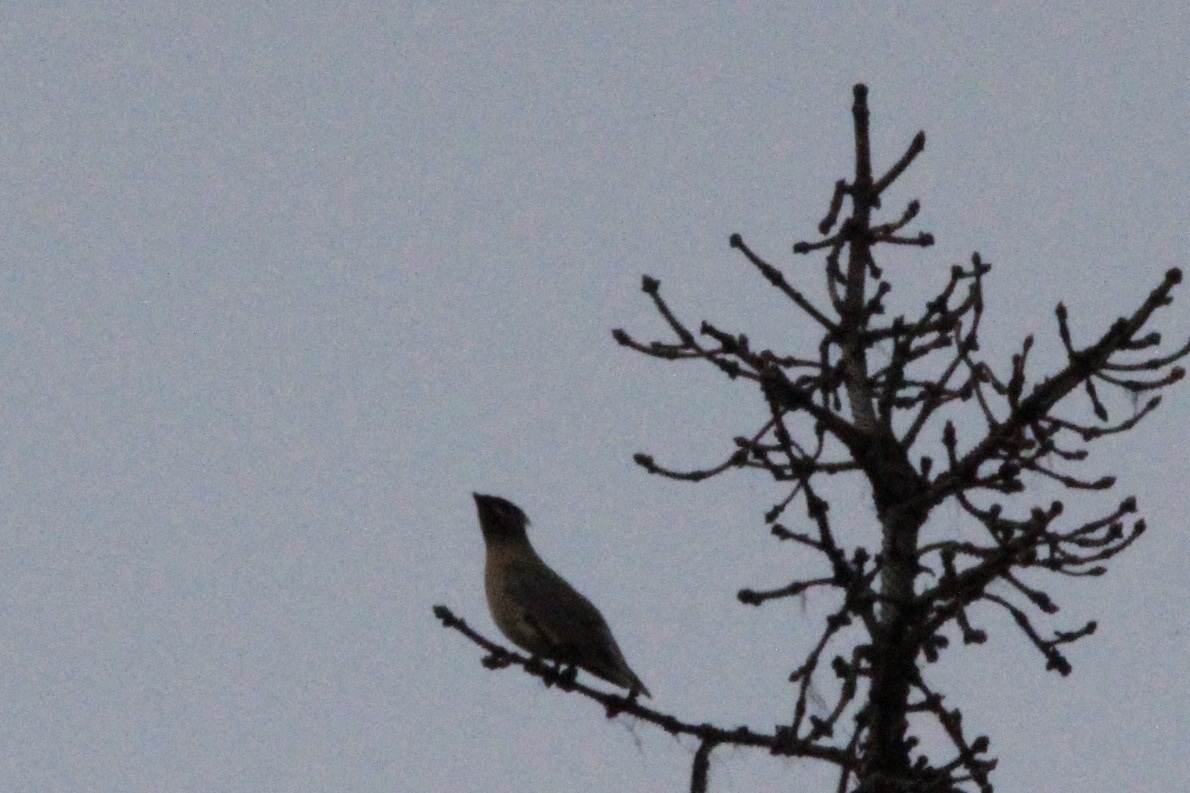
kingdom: Animalia
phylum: Chordata
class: Aves
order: Passeriformes
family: Bombycillidae
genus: Bombycilla
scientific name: Bombycilla cedrorum
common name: Cedar waxwing
